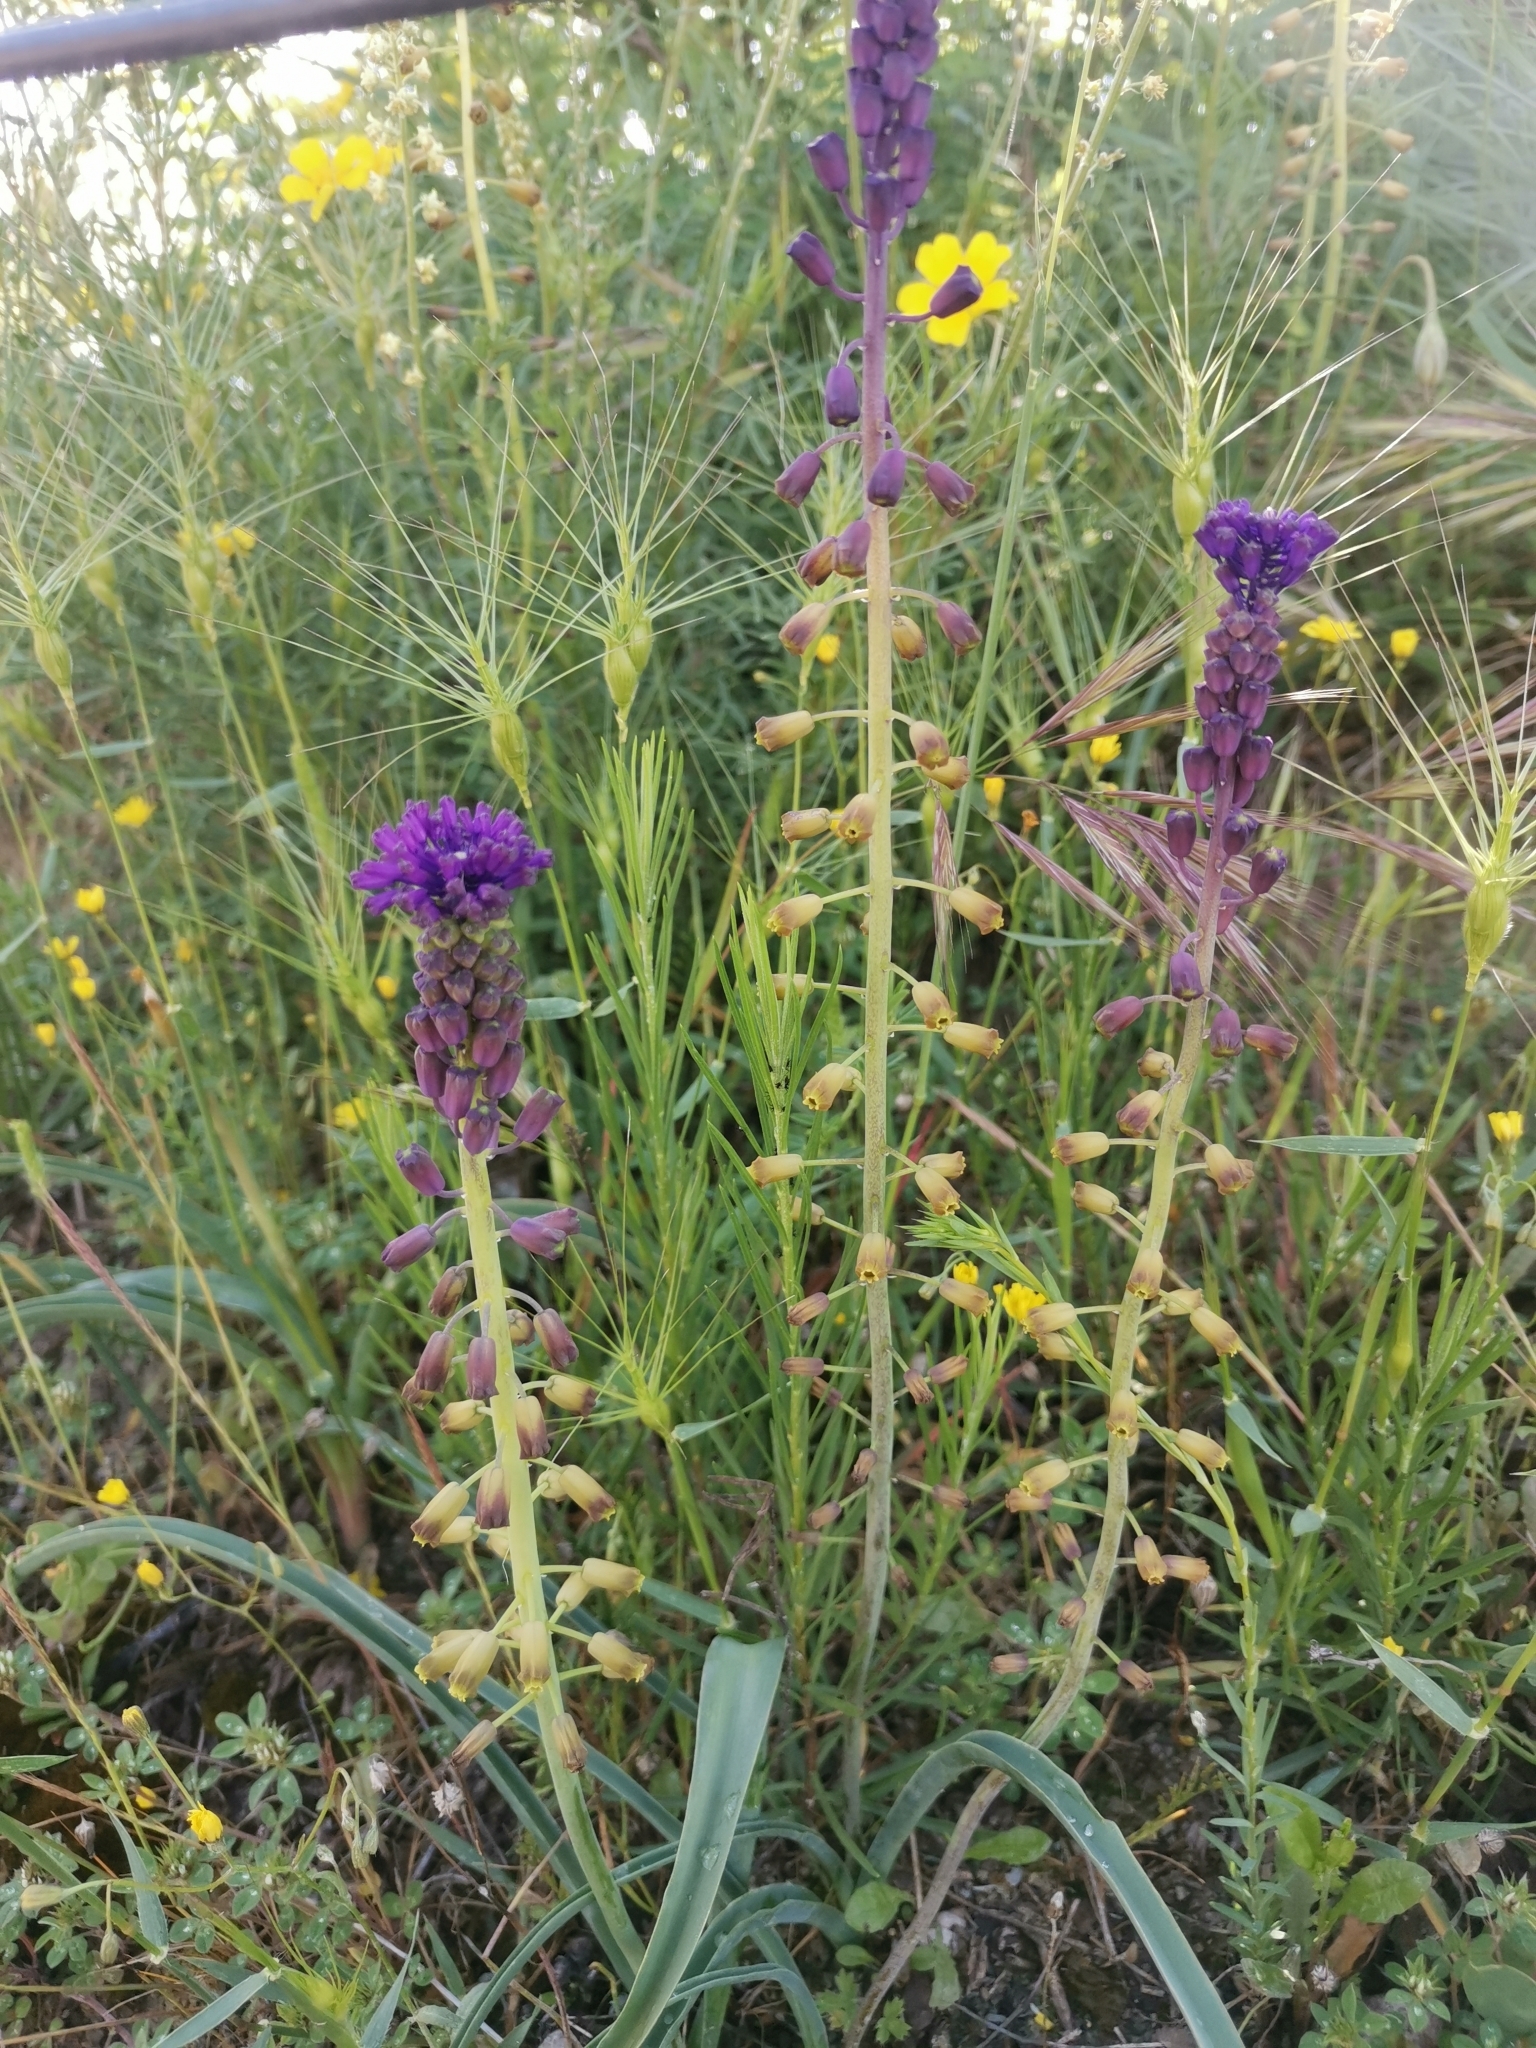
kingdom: Plantae
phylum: Tracheophyta
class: Liliopsida
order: Asparagales
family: Asparagaceae
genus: Muscari
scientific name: Muscari comosum
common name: Tassel hyacinth
